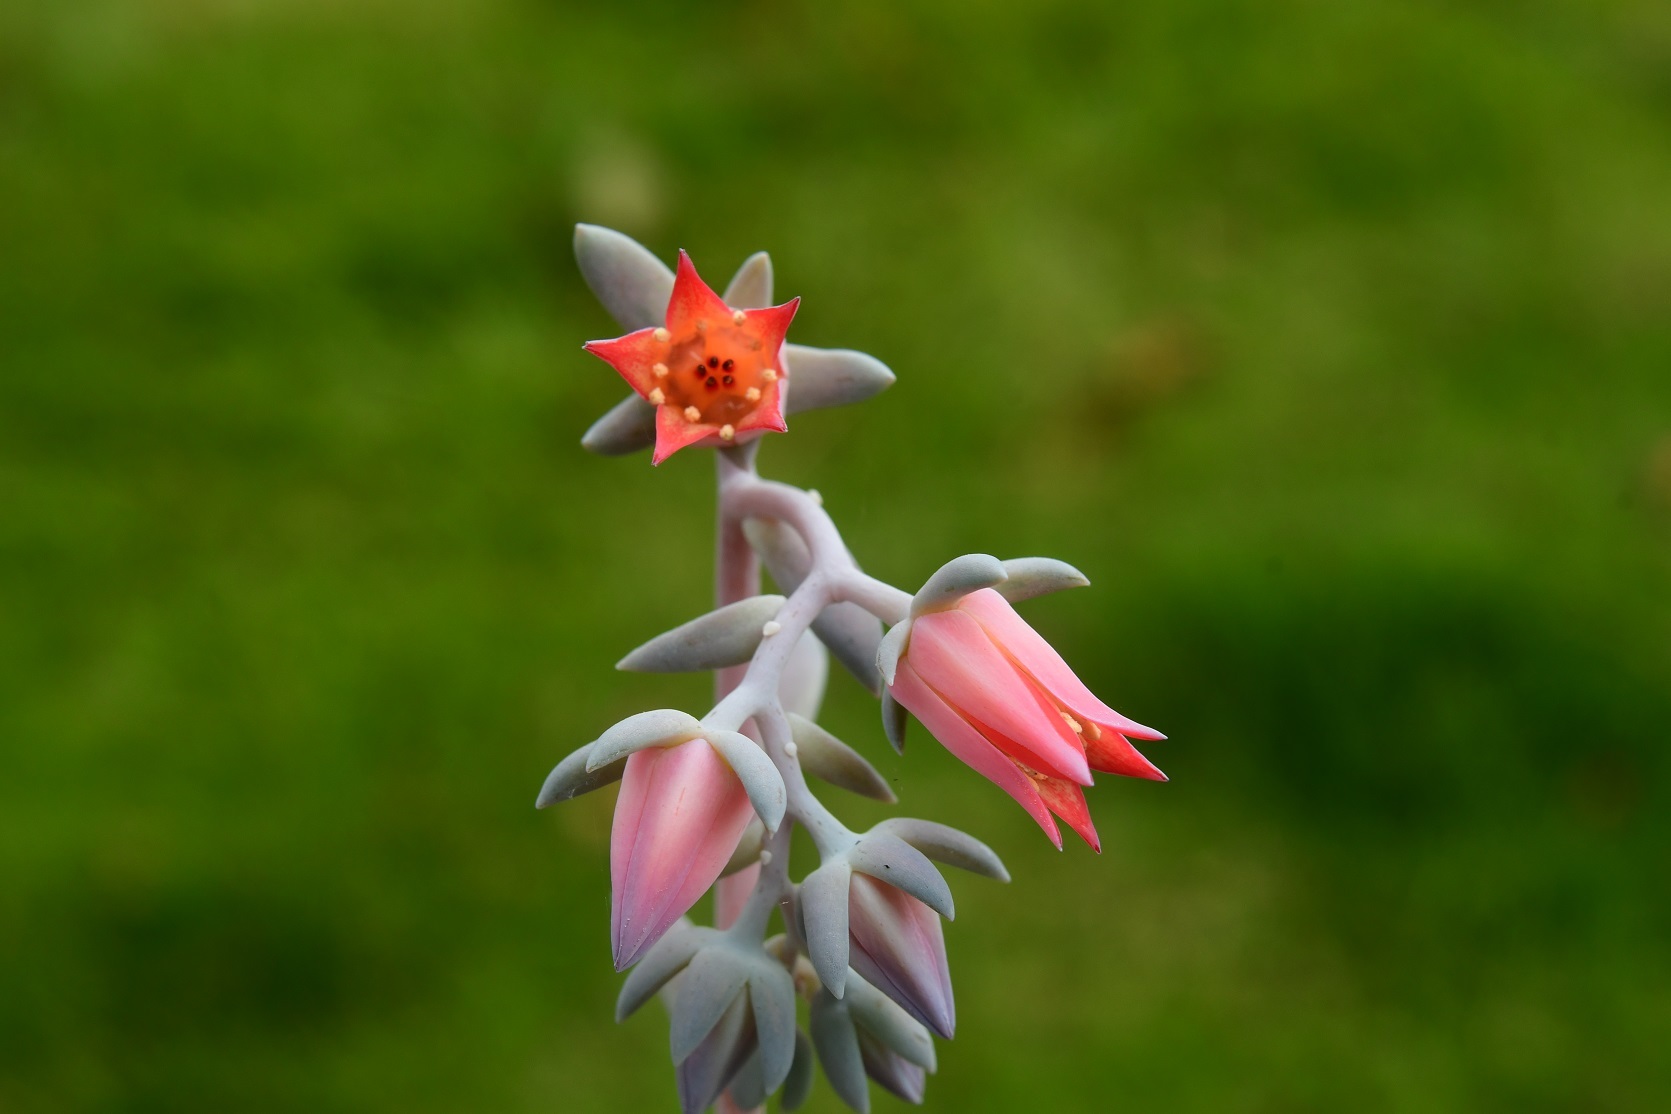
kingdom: Plantae
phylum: Tracheophyta
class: Magnoliopsida
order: Saxifragales
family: Crassulaceae
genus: Echeveria
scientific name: Echeveria prunina
